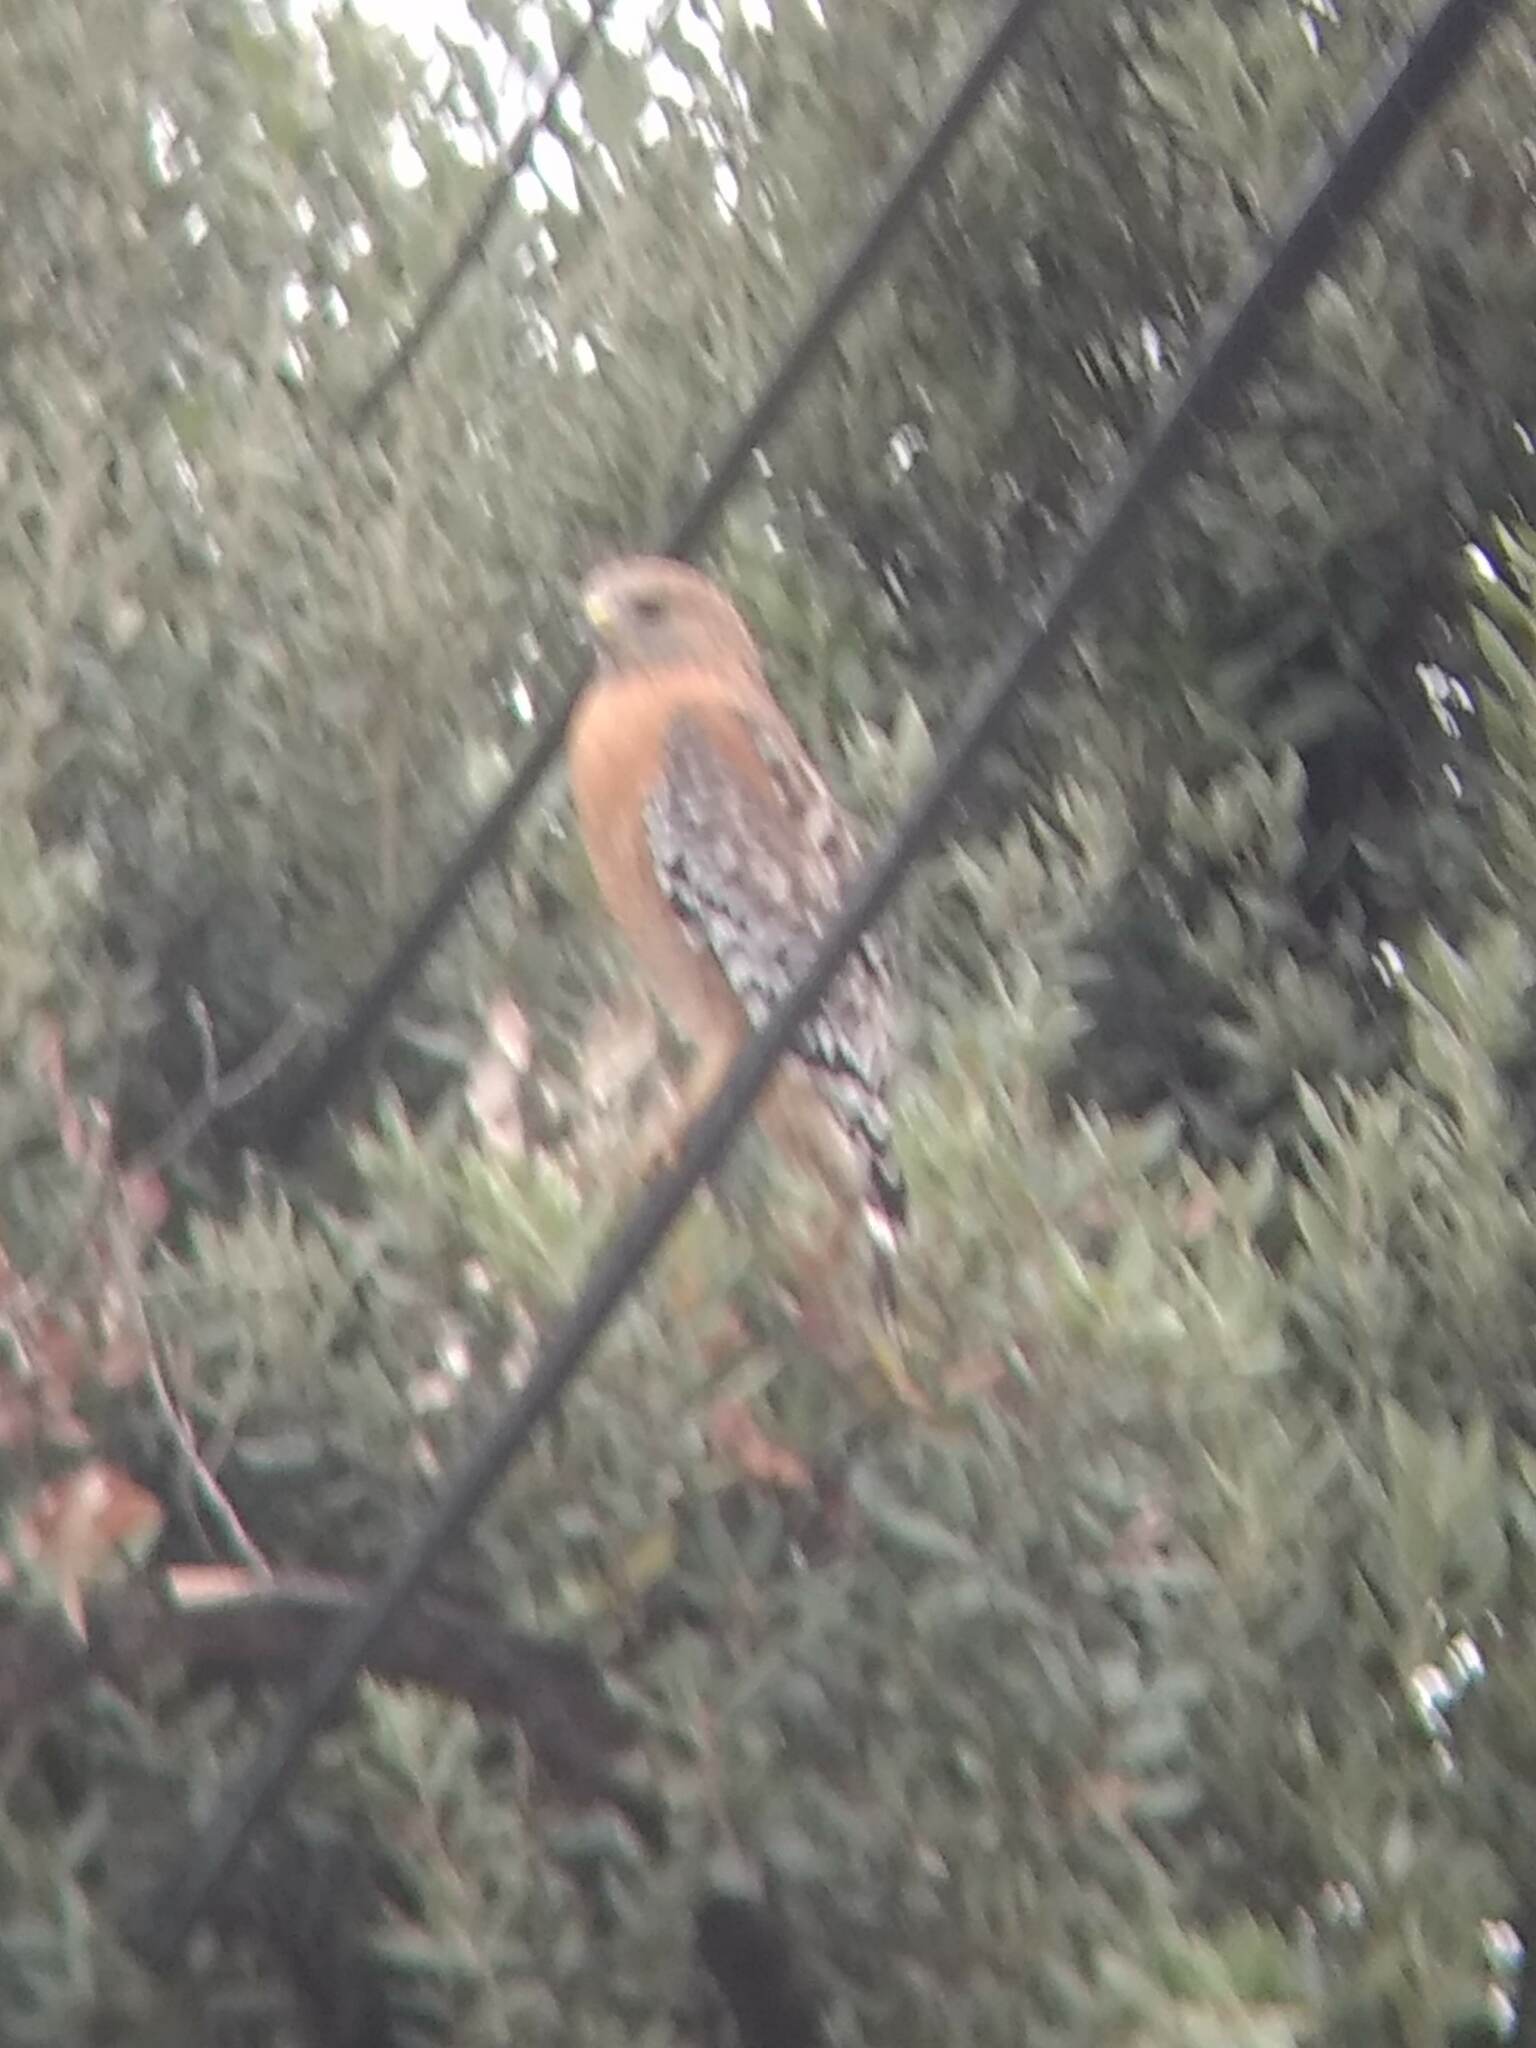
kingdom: Animalia
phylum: Chordata
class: Aves
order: Accipitriformes
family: Accipitridae
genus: Buteo
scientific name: Buteo lineatus
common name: Red-shouldered hawk
